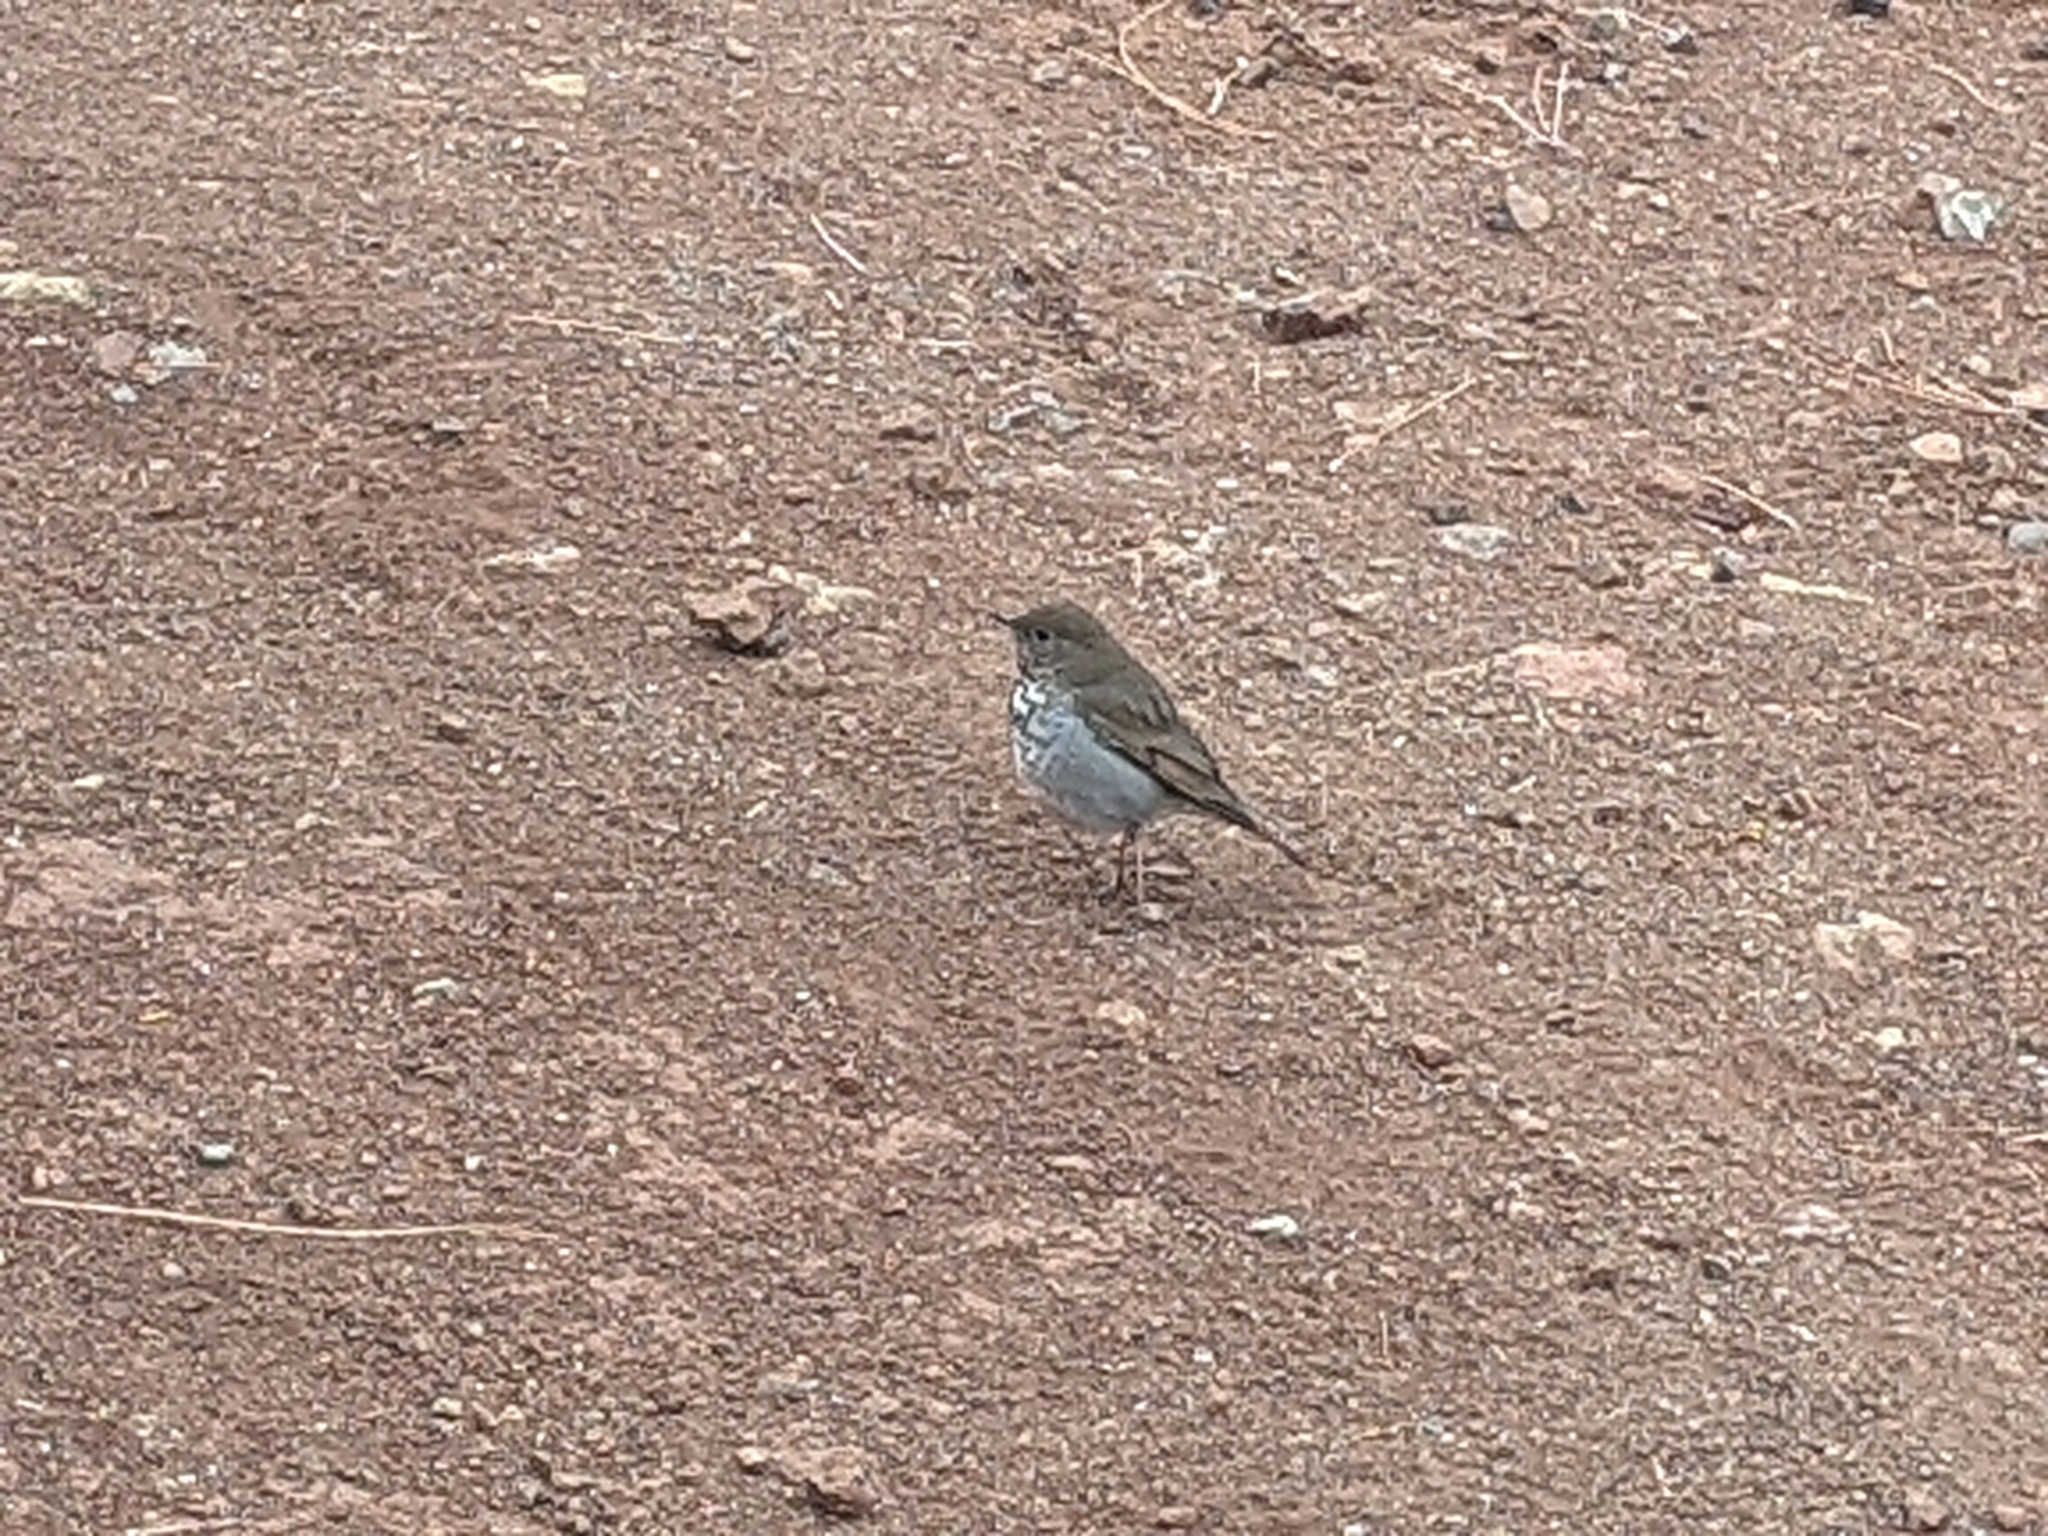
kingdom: Animalia
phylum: Chordata
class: Aves
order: Passeriformes
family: Turdidae
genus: Catharus
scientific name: Catharus guttatus
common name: Hermit thrush
